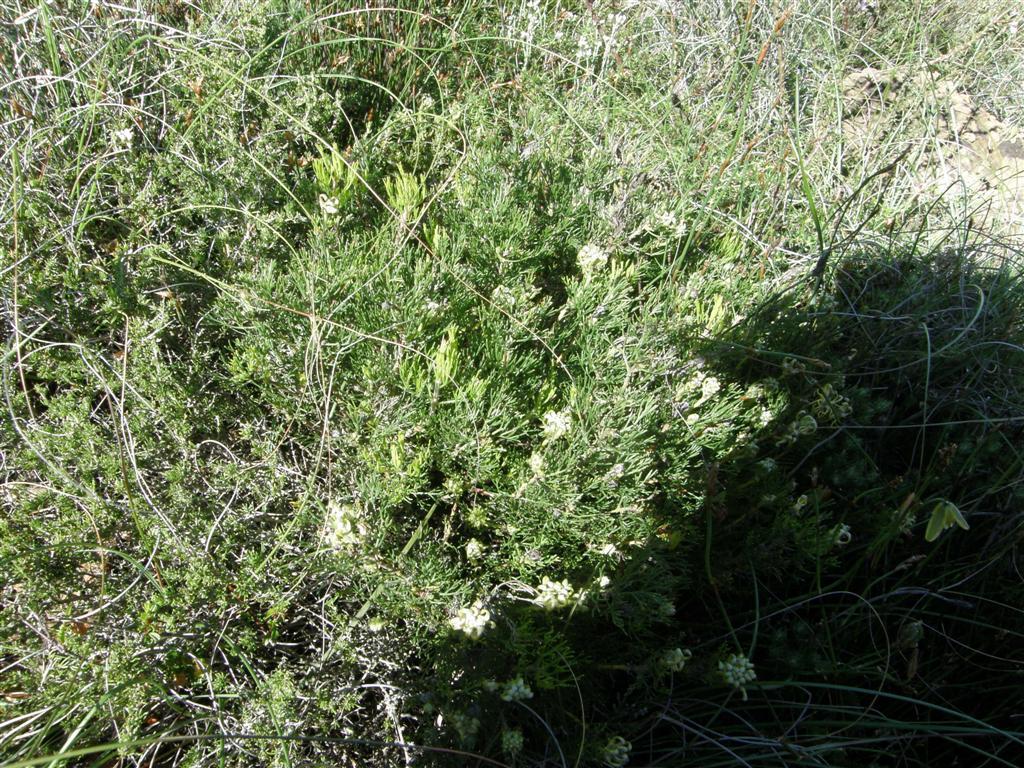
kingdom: Plantae
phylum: Tracheophyta
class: Magnoliopsida
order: Proteales
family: Proteaceae
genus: Serruria
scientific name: Serruria
